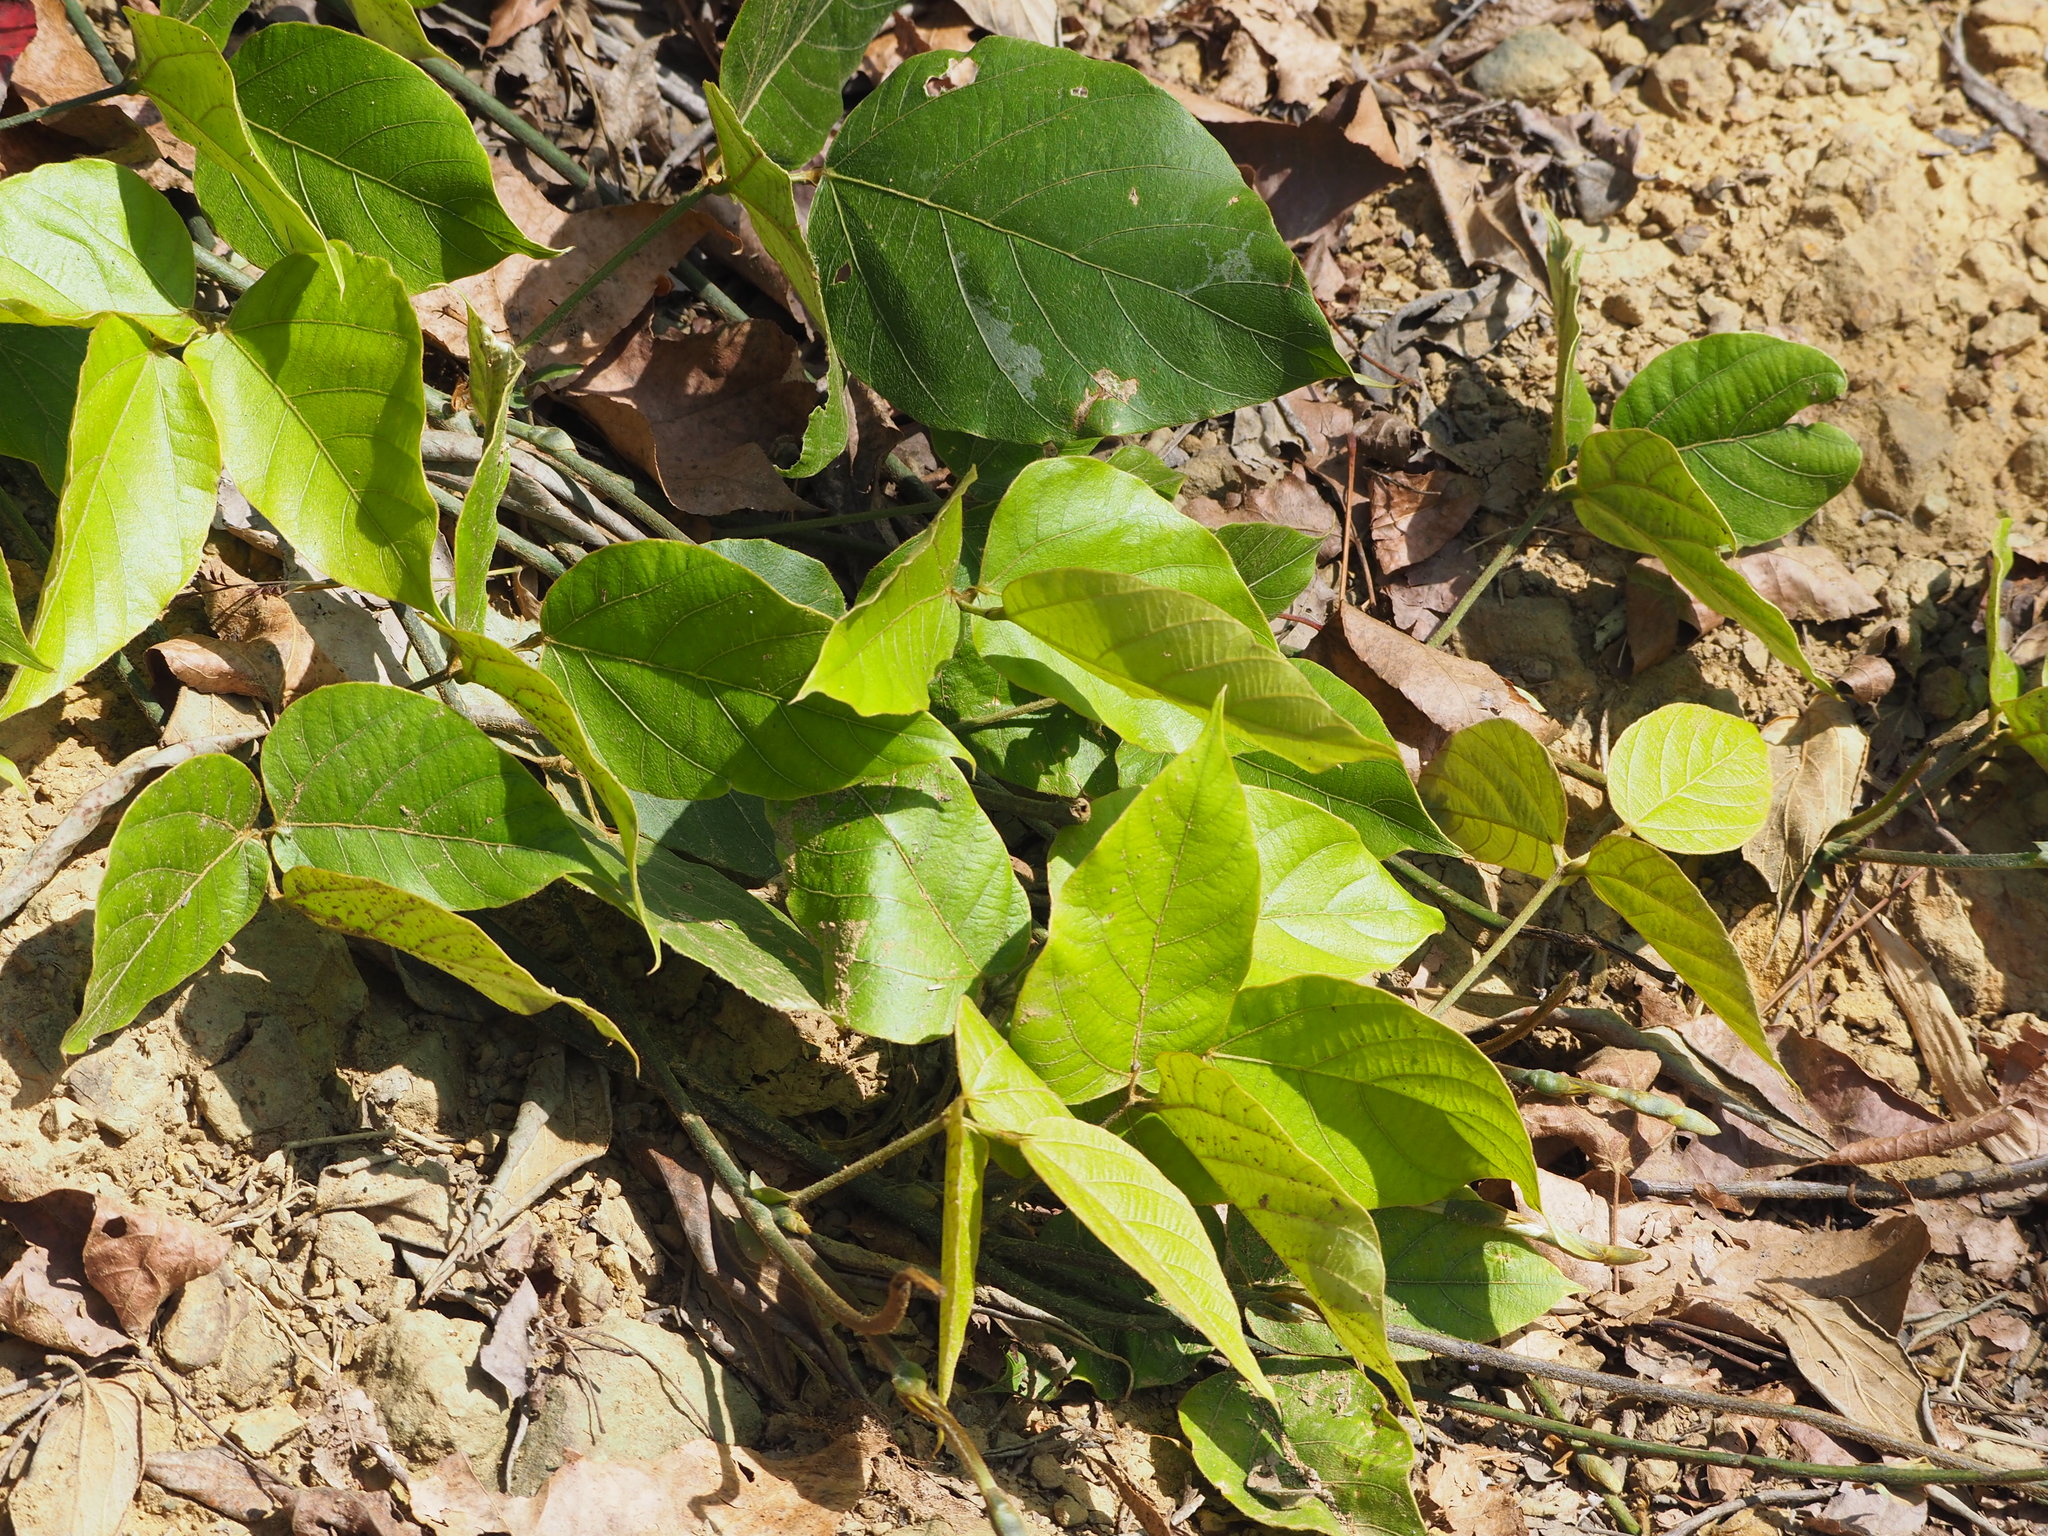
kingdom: Plantae
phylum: Tracheophyta
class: Magnoliopsida
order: Fabales
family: Fabaceae
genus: Pueraria
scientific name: Pueraria montana
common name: Kudzu
